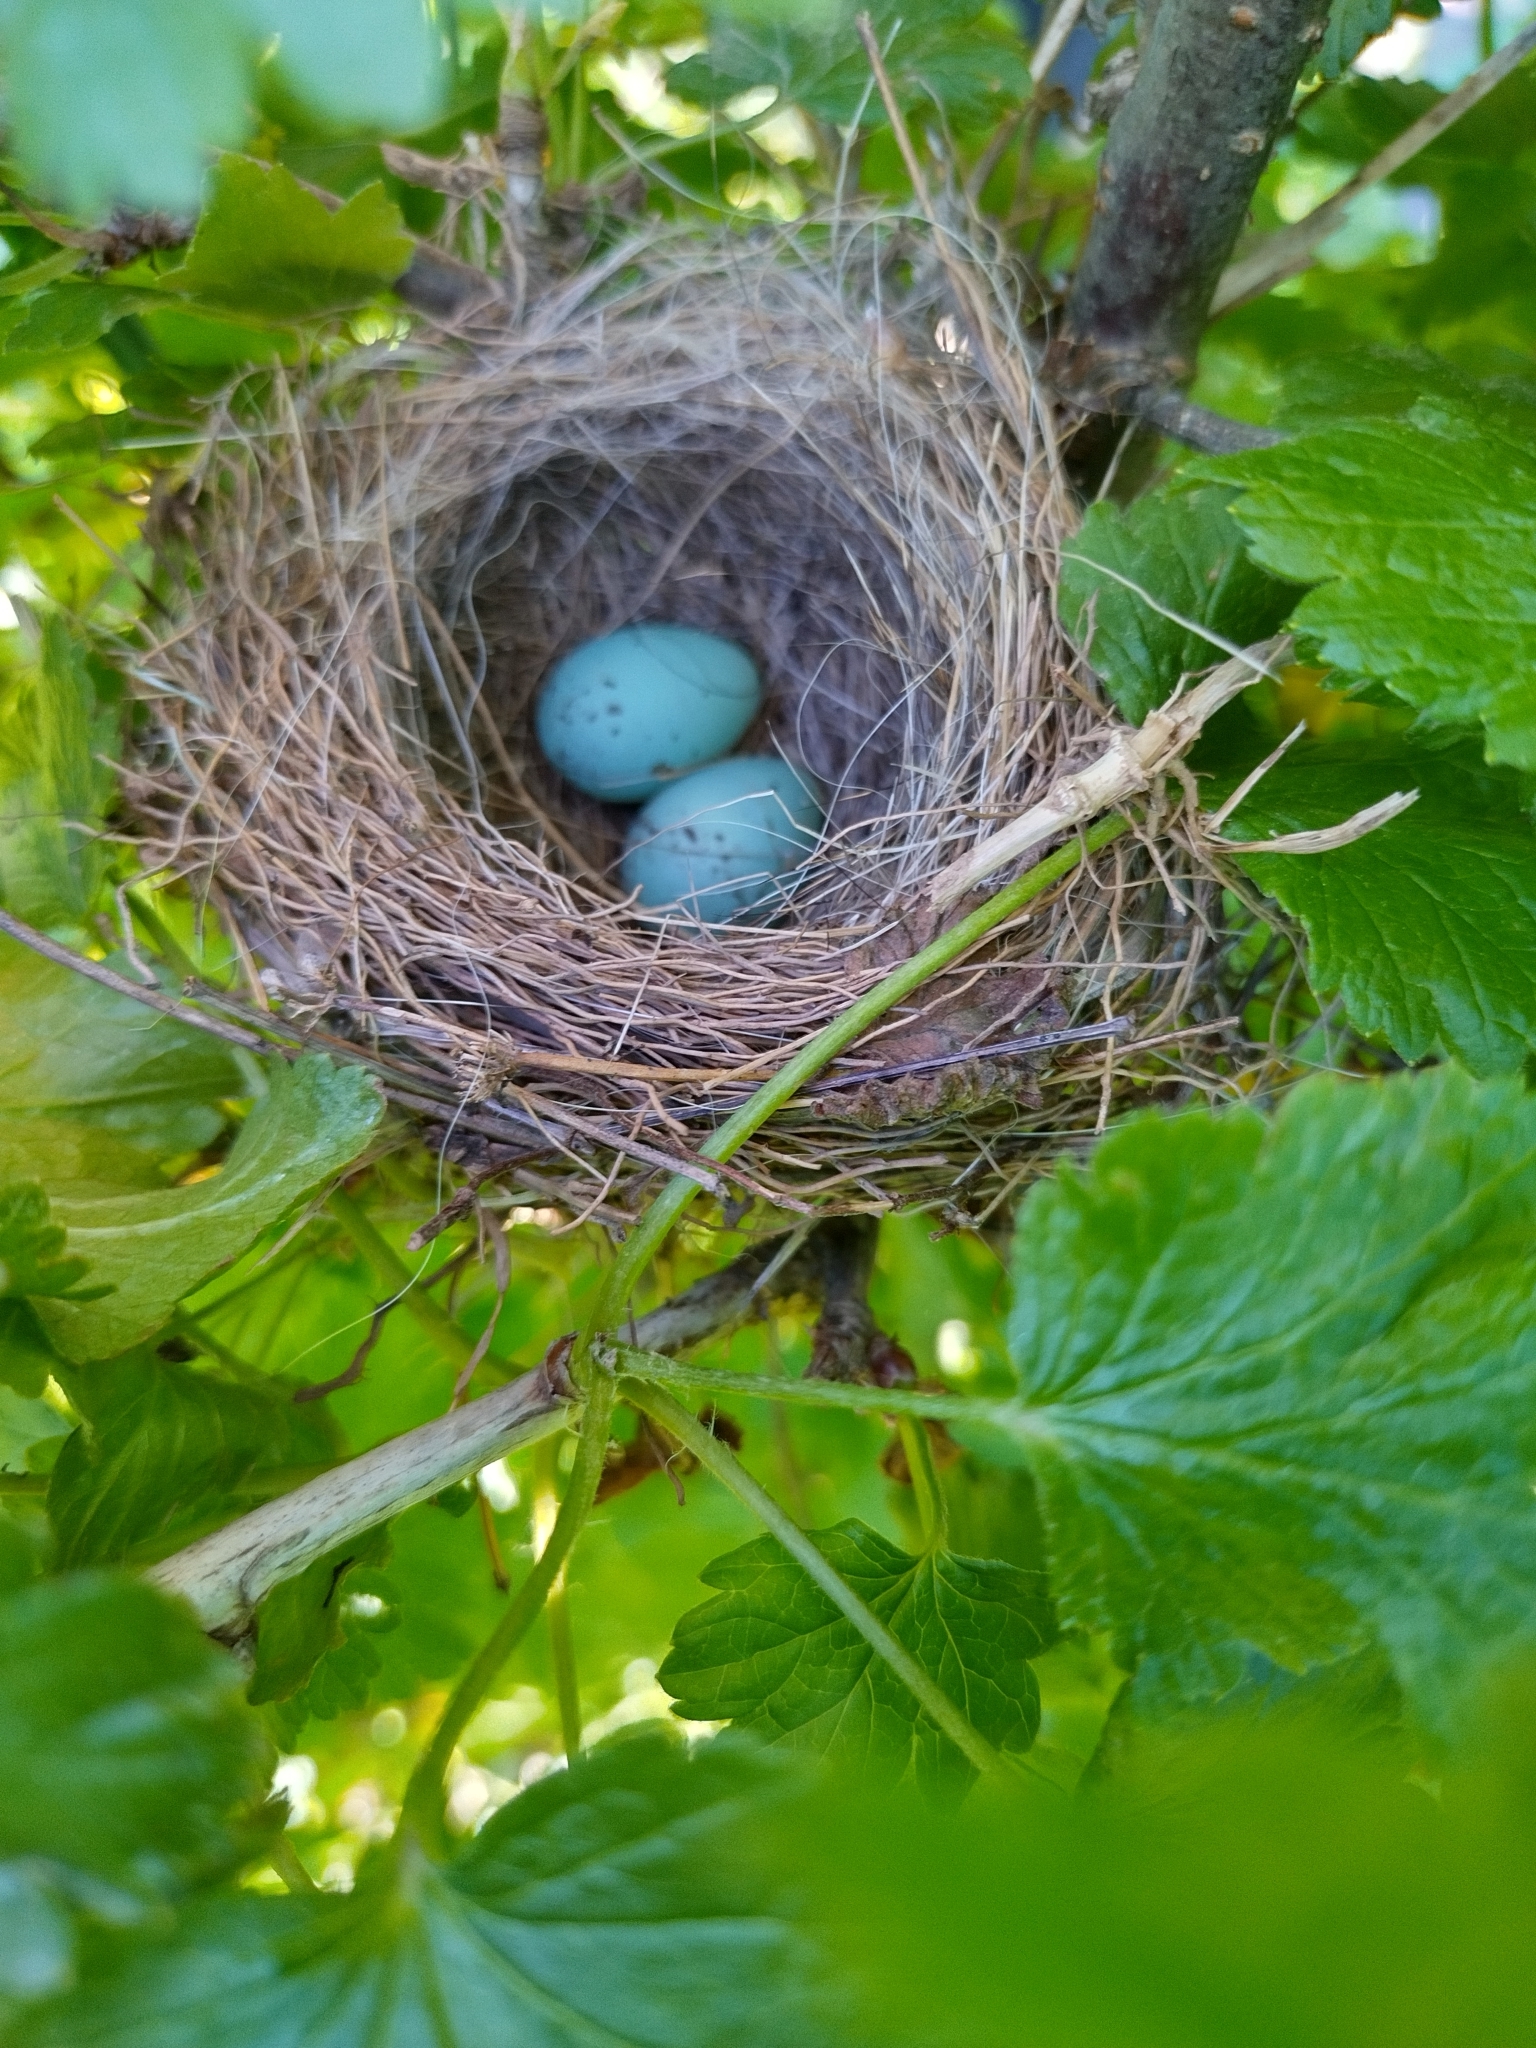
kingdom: Animalia
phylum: Chordata
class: Aves
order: Passeriformes
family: Passerellidae
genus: Spizella
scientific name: Spizella passerina
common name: Chipping sparrow
